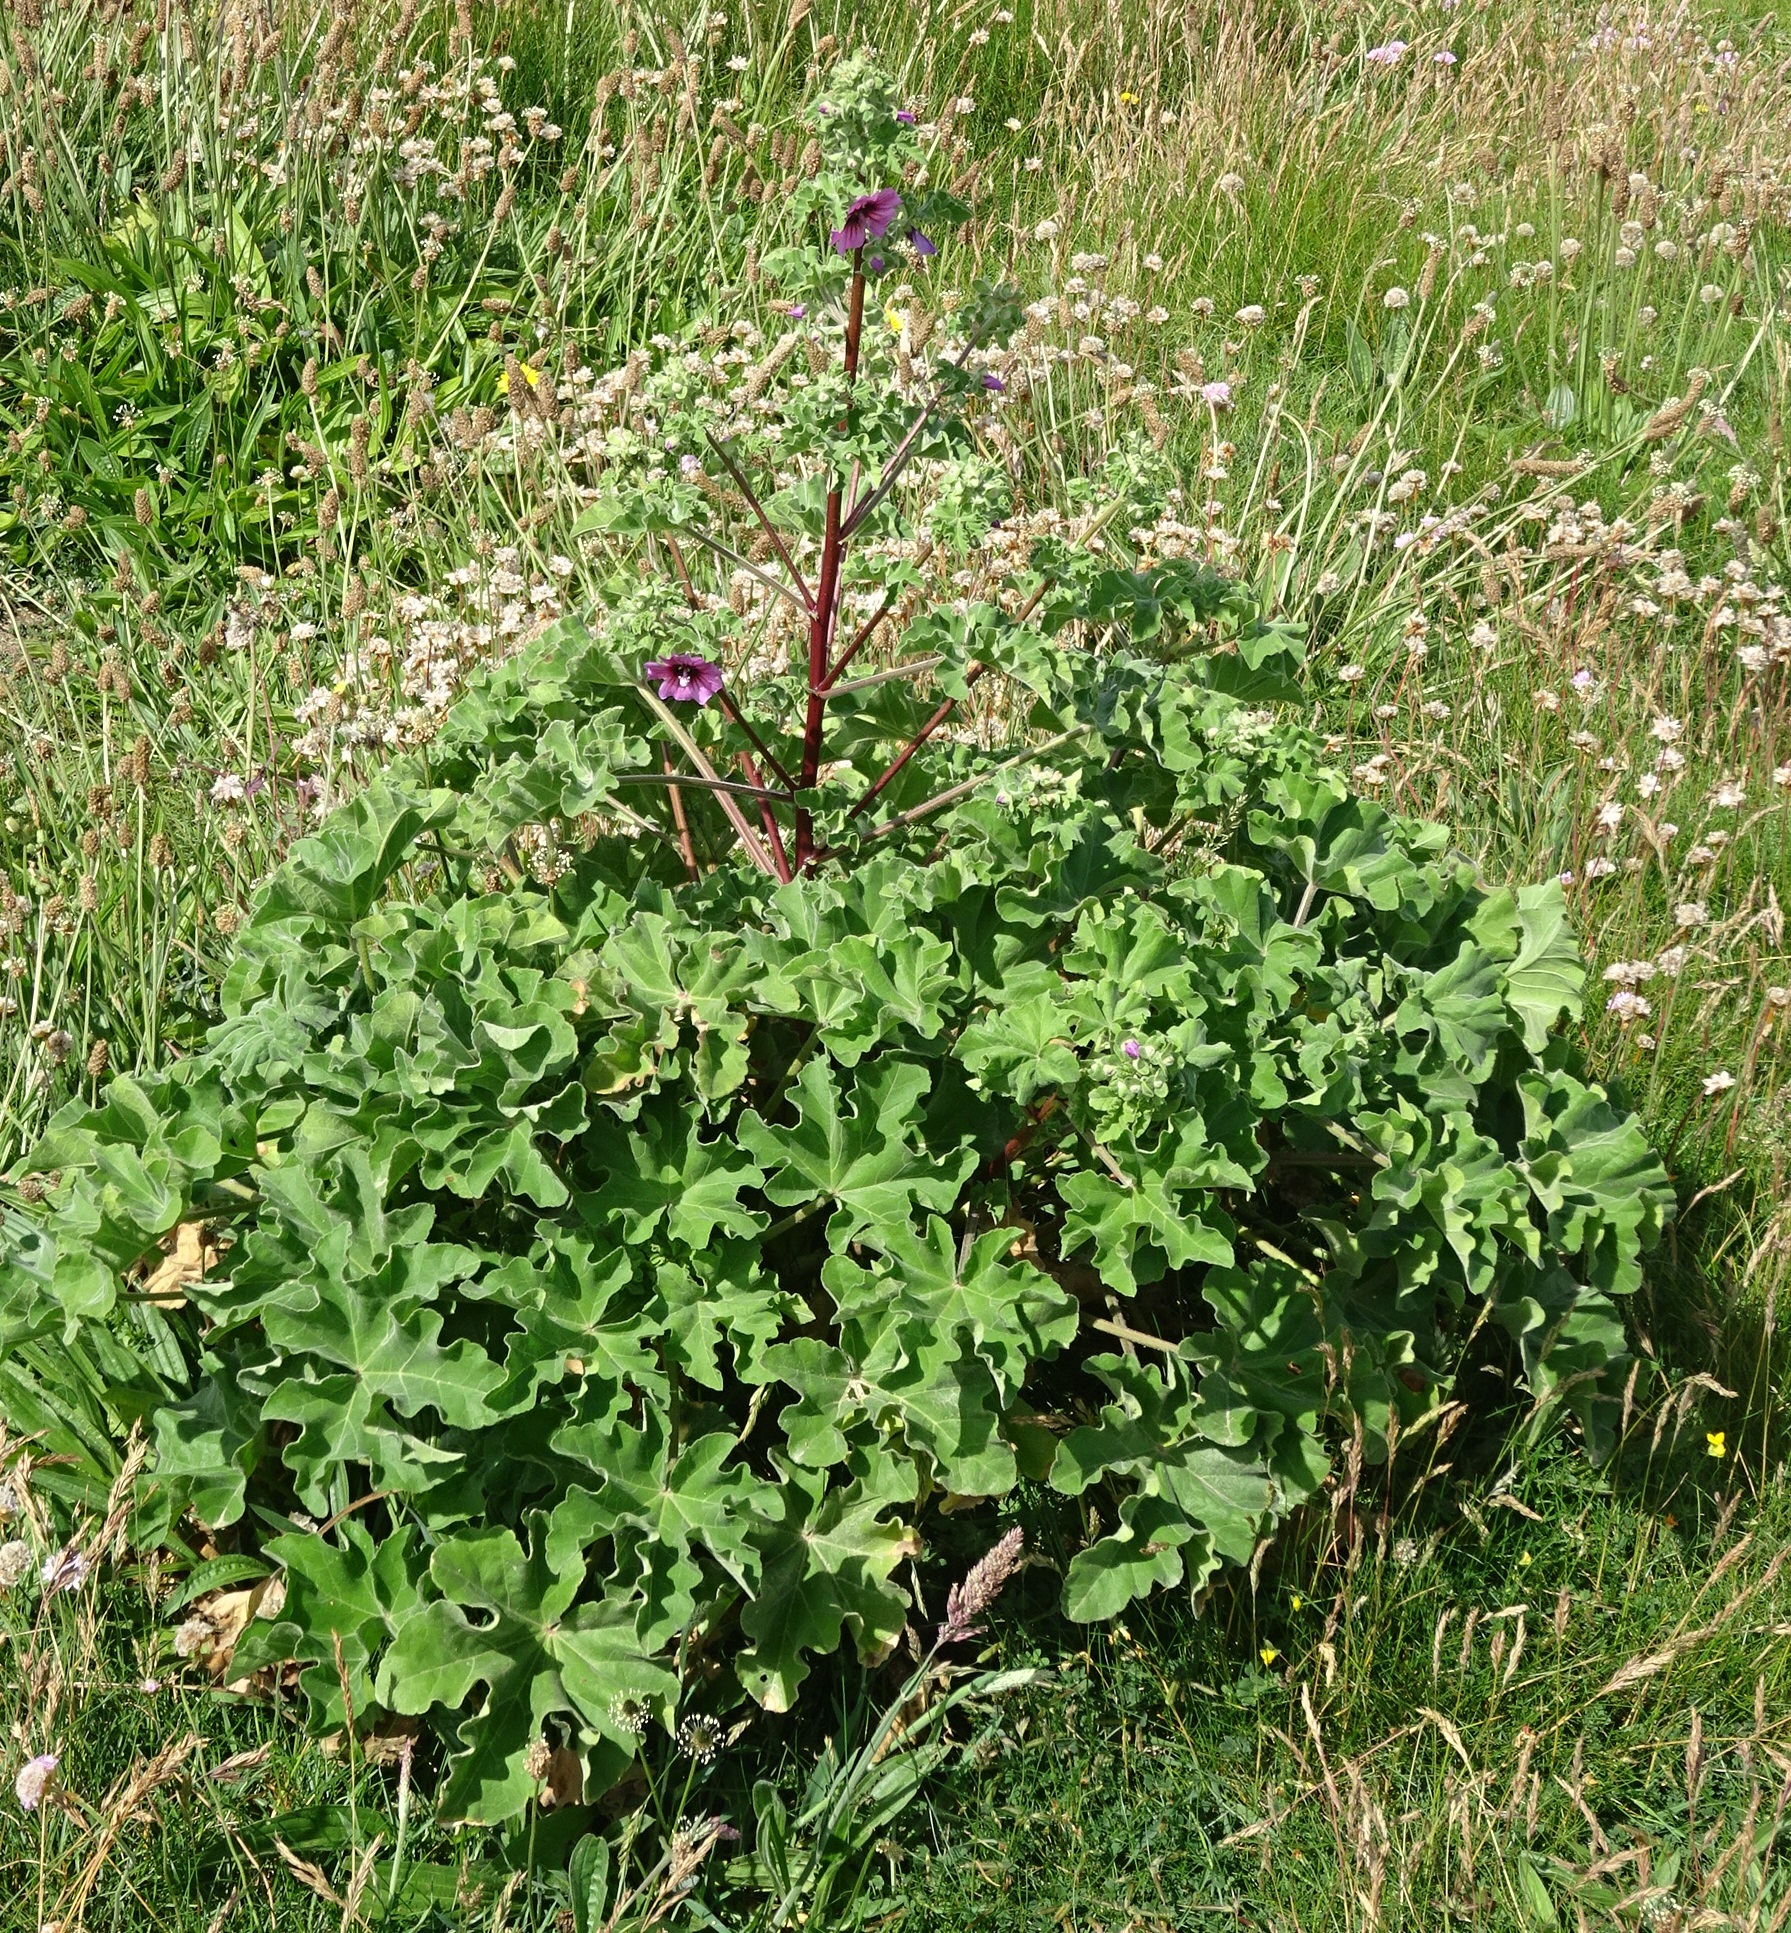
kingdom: Plantae
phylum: Tracheophyta
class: Magnoliopsida
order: Malvales
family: Malvaceae
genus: Malva
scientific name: Malva arborea
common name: Tree mallow
